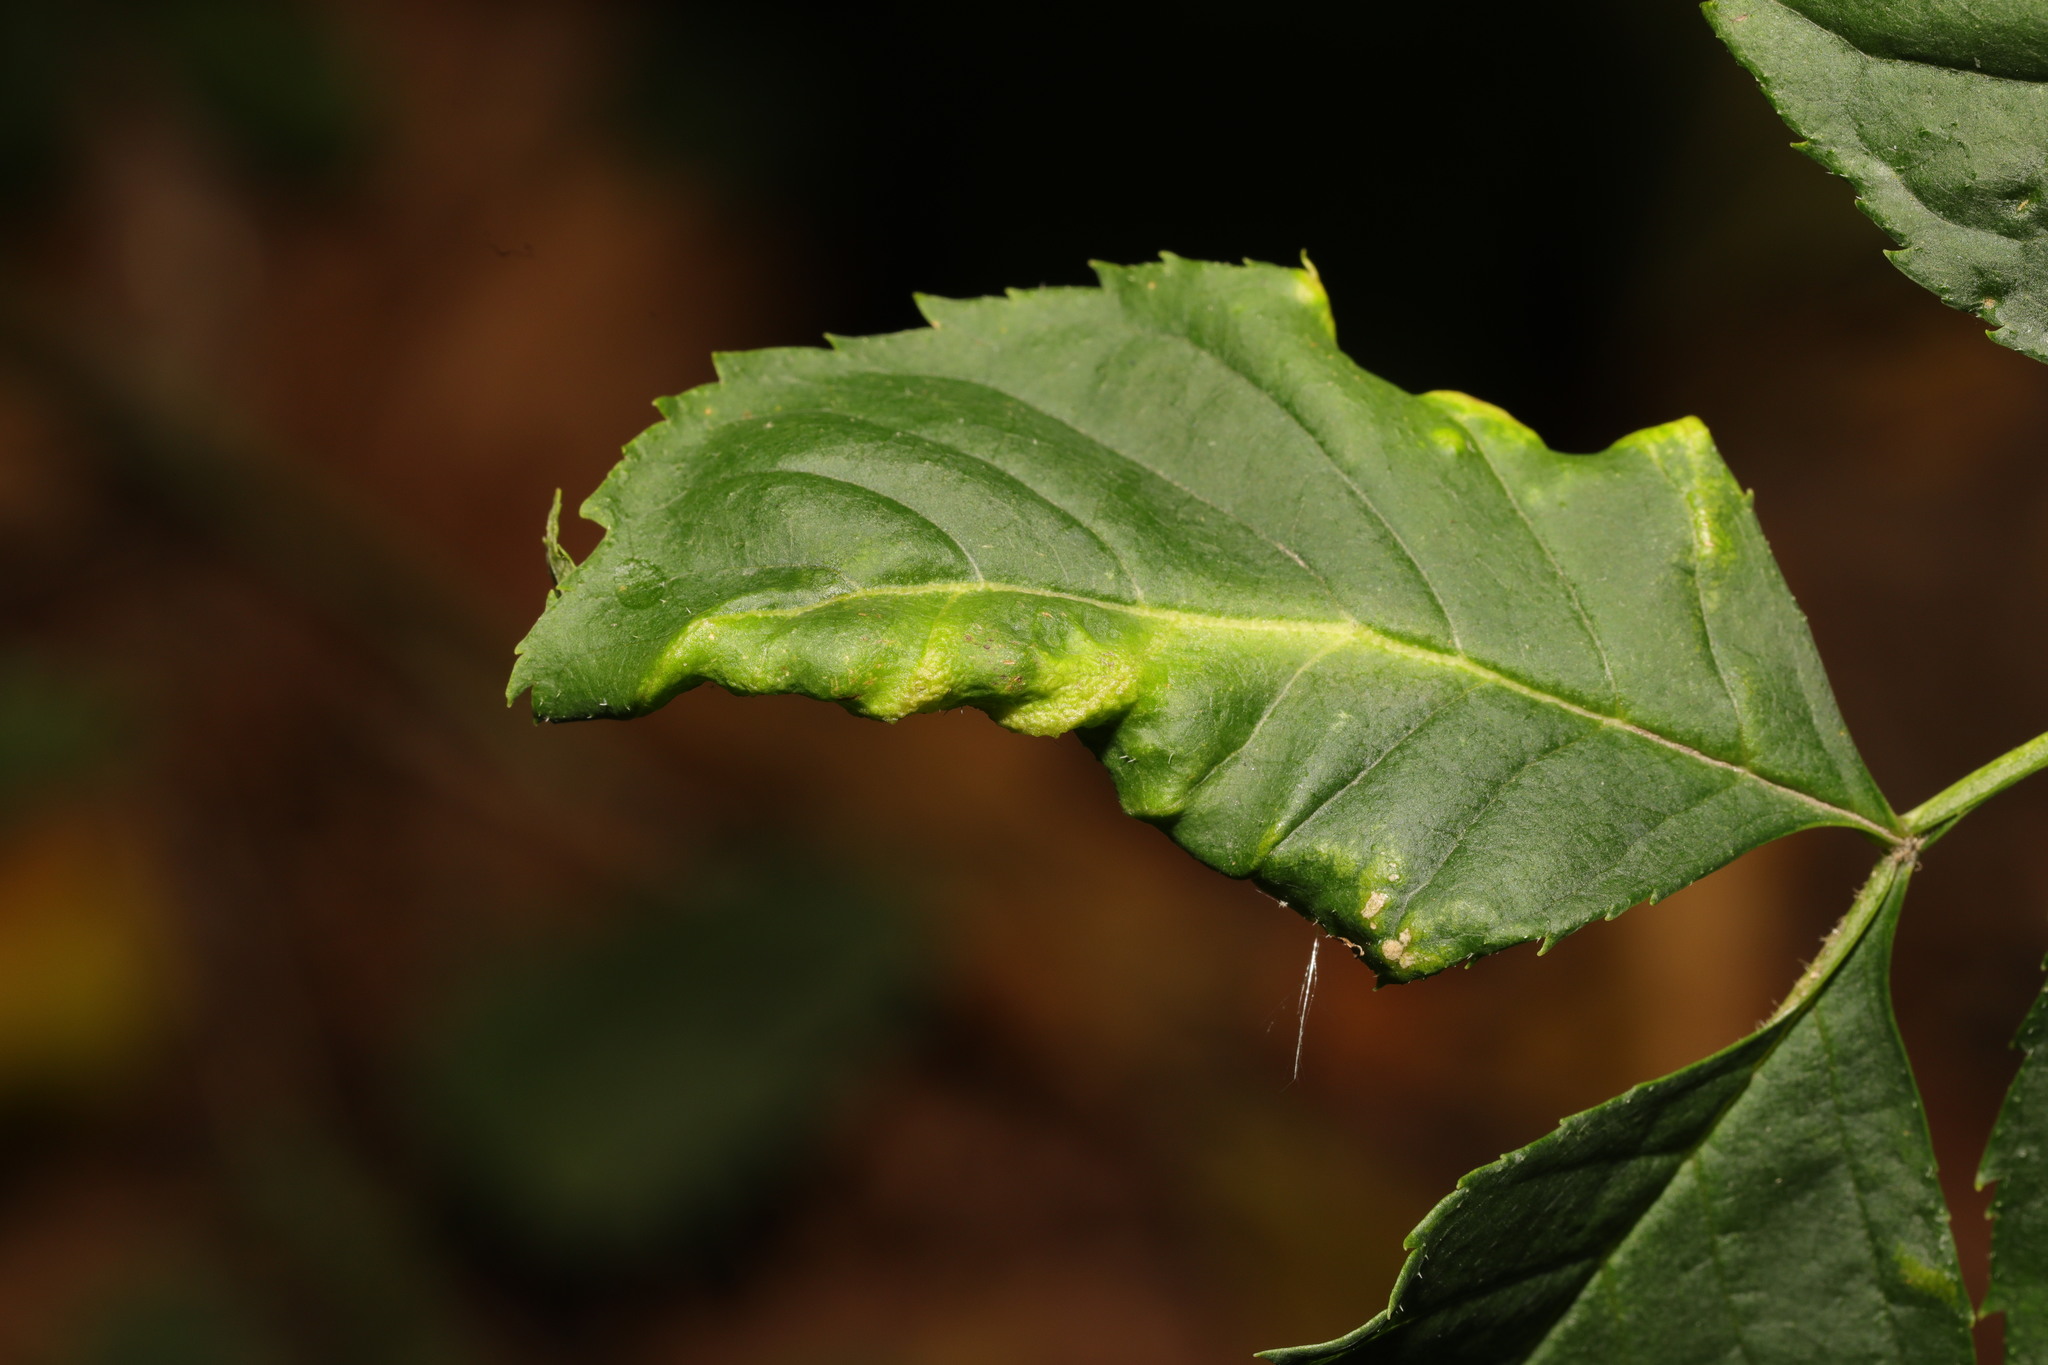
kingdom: Animalia
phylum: Arthropoda
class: Insecta
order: Hemiptera
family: Liviidae
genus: Psyllopsis
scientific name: Psyllopsis fraxini
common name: Jumping plant louse
